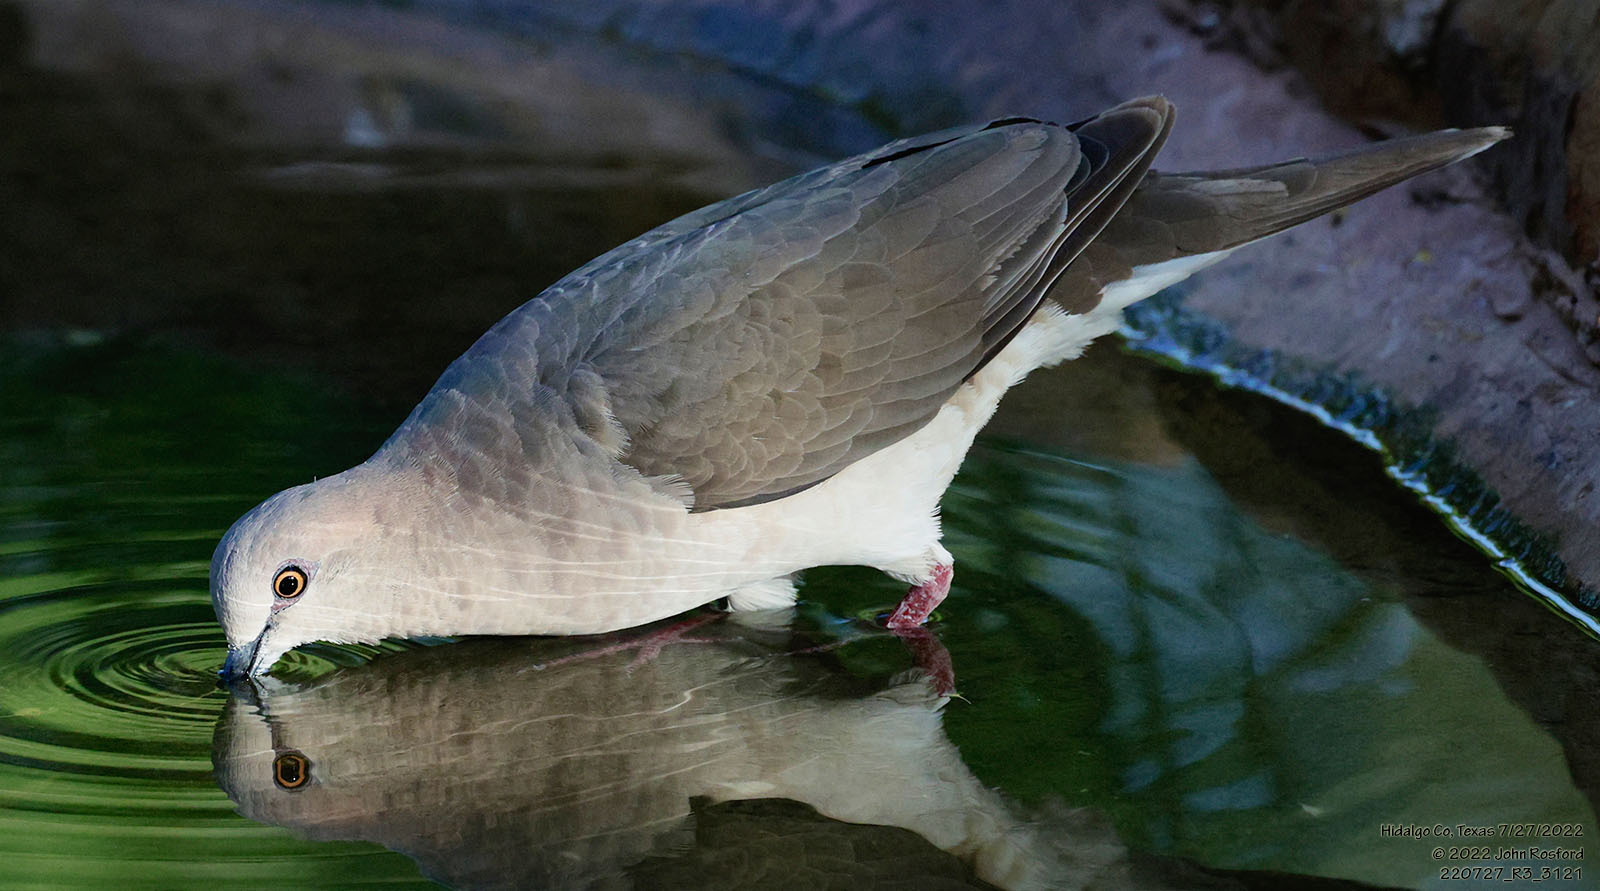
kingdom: Animalia
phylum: Chordata
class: Aves
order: Columbiformes
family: Columbidae
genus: Leptotila
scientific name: Leptotila verreauxi
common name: White-tipped dove
